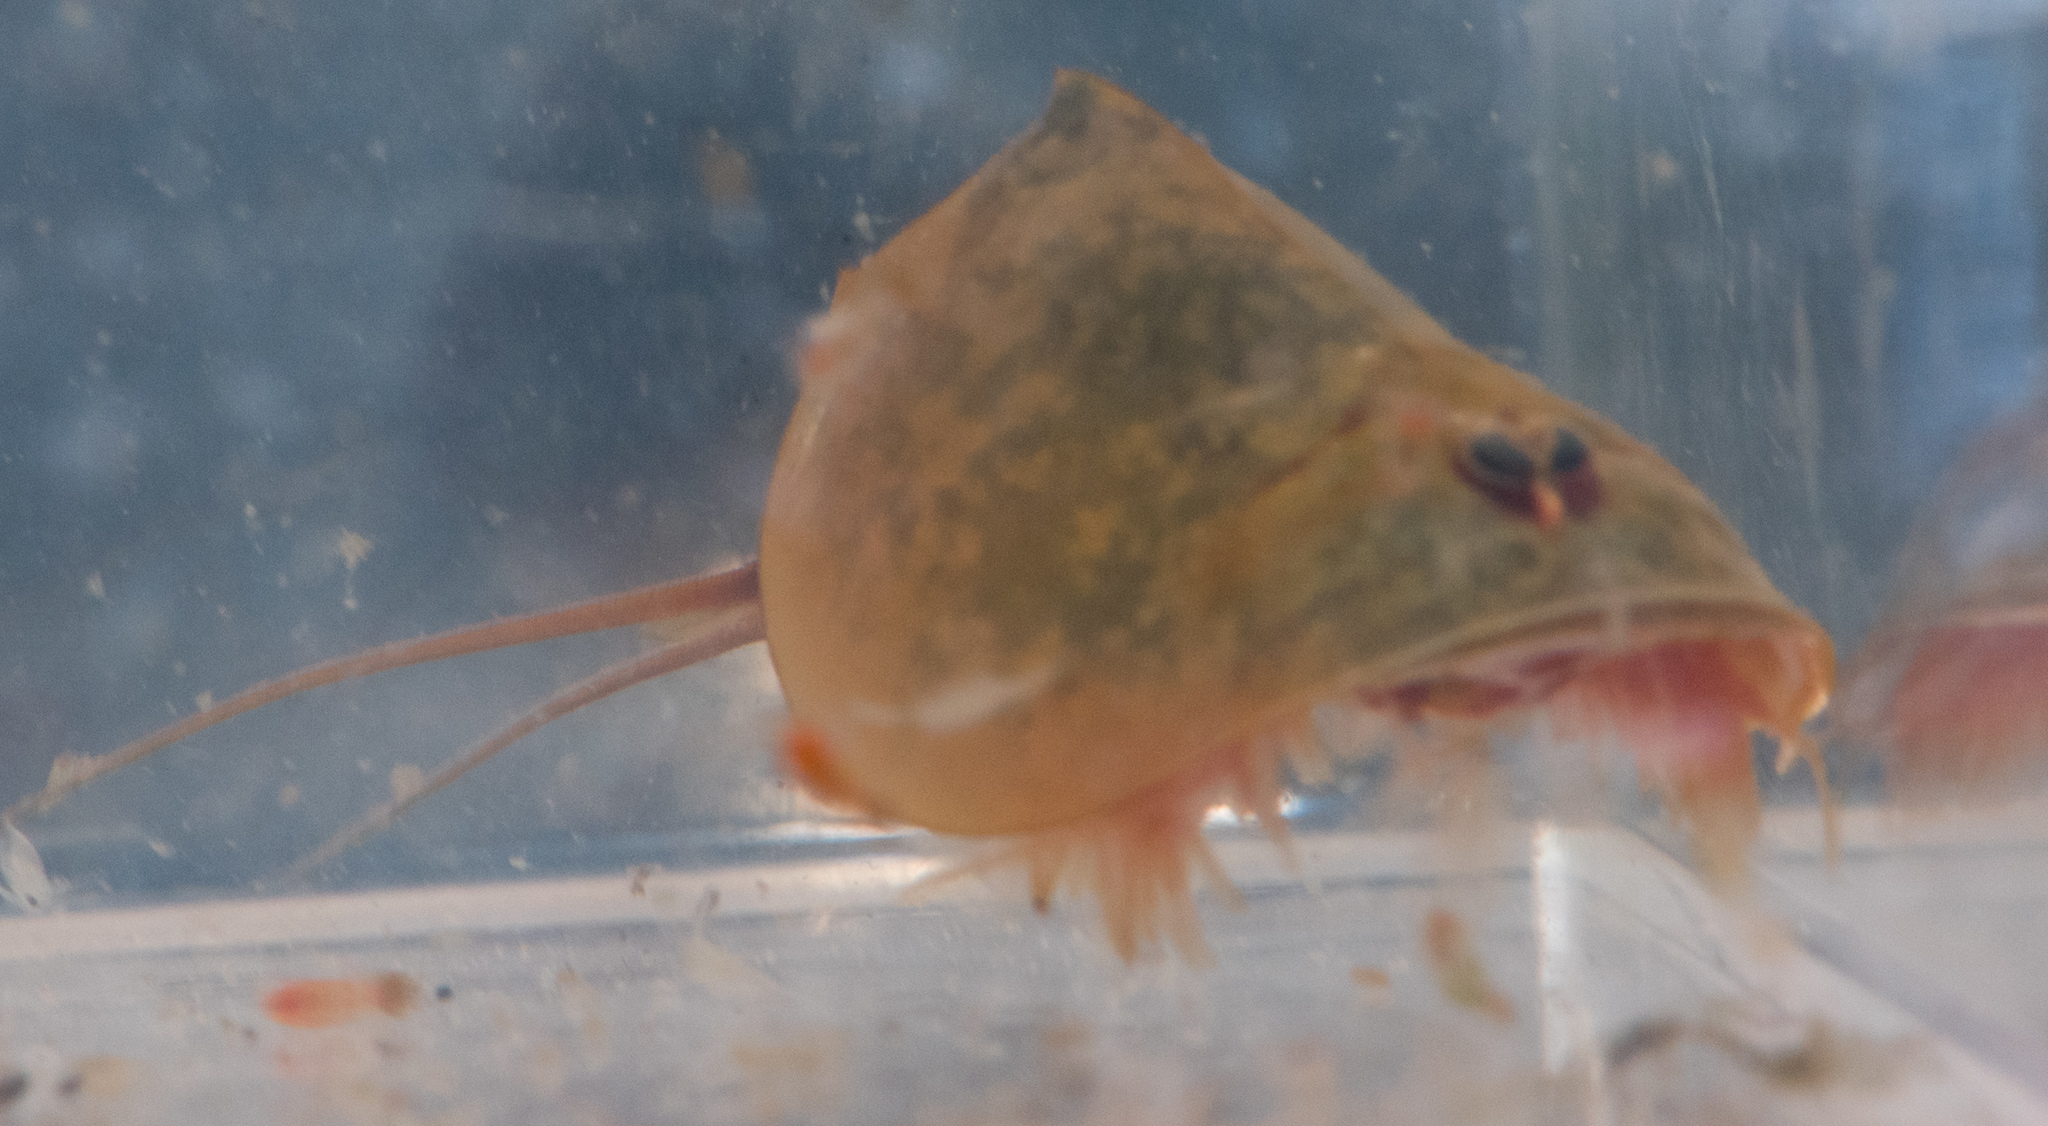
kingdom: Animalia
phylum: Arthropoda
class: Branchiopoda
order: Notostraca
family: Triopsidae
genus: Lepidurus
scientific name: Lepidurus packardi
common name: Vernal pool tadpole shrimp
